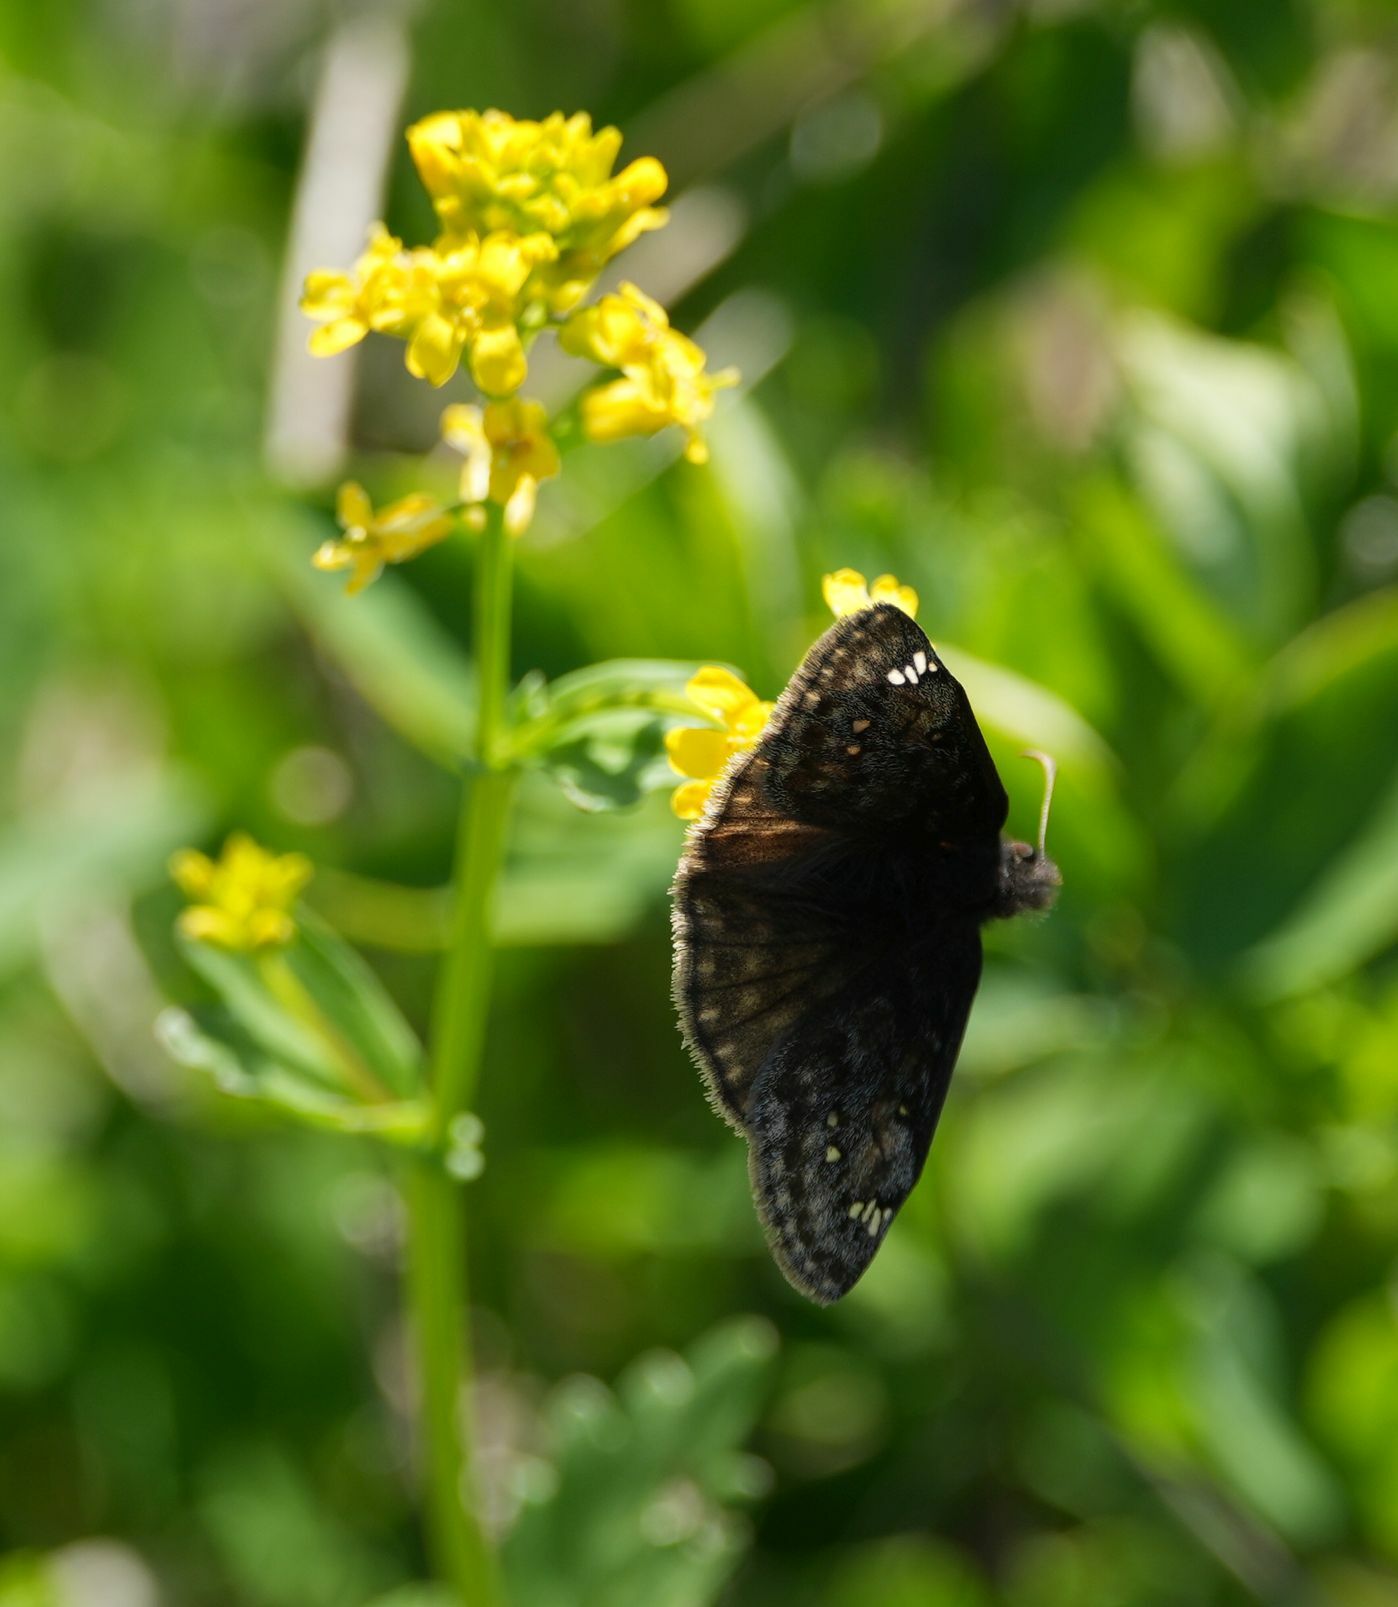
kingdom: Animalia
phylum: Arthropoda
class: Insecta
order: Lepidoptera
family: Hesperiidae
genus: Erynnis
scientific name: Erynnis juvenalis
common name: Juvenal's duskywing
